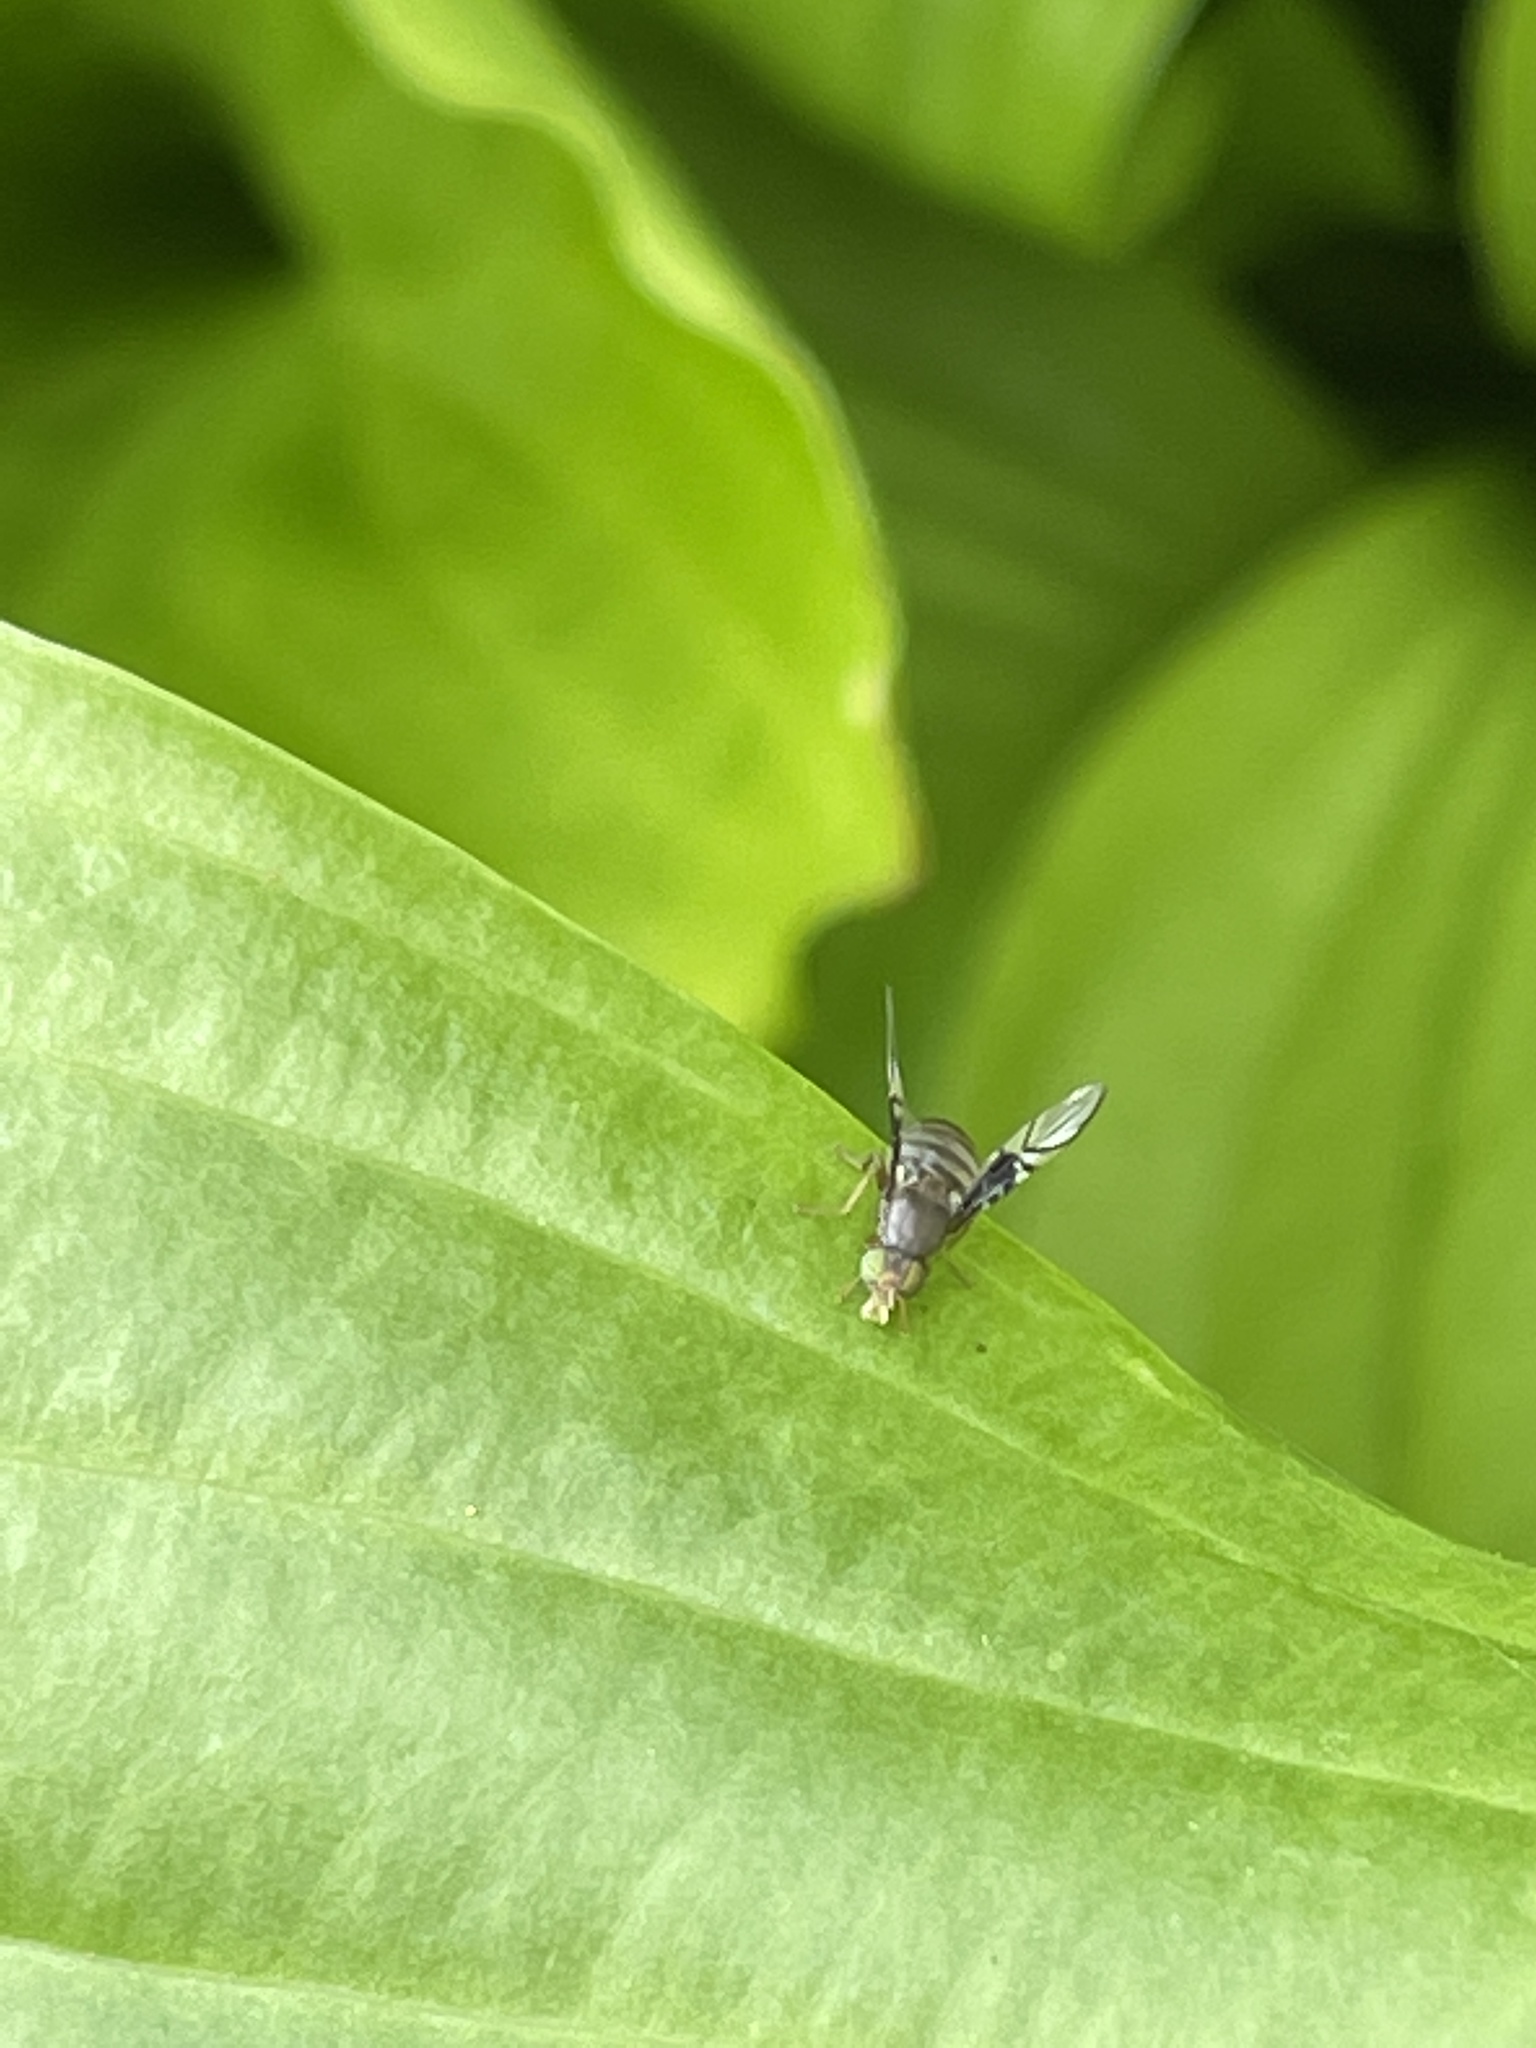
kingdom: Animalia
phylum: Arthropoda
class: Insecta
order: Diptera
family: Tephritidae
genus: Anomoia
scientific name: Anomoia purmunda
